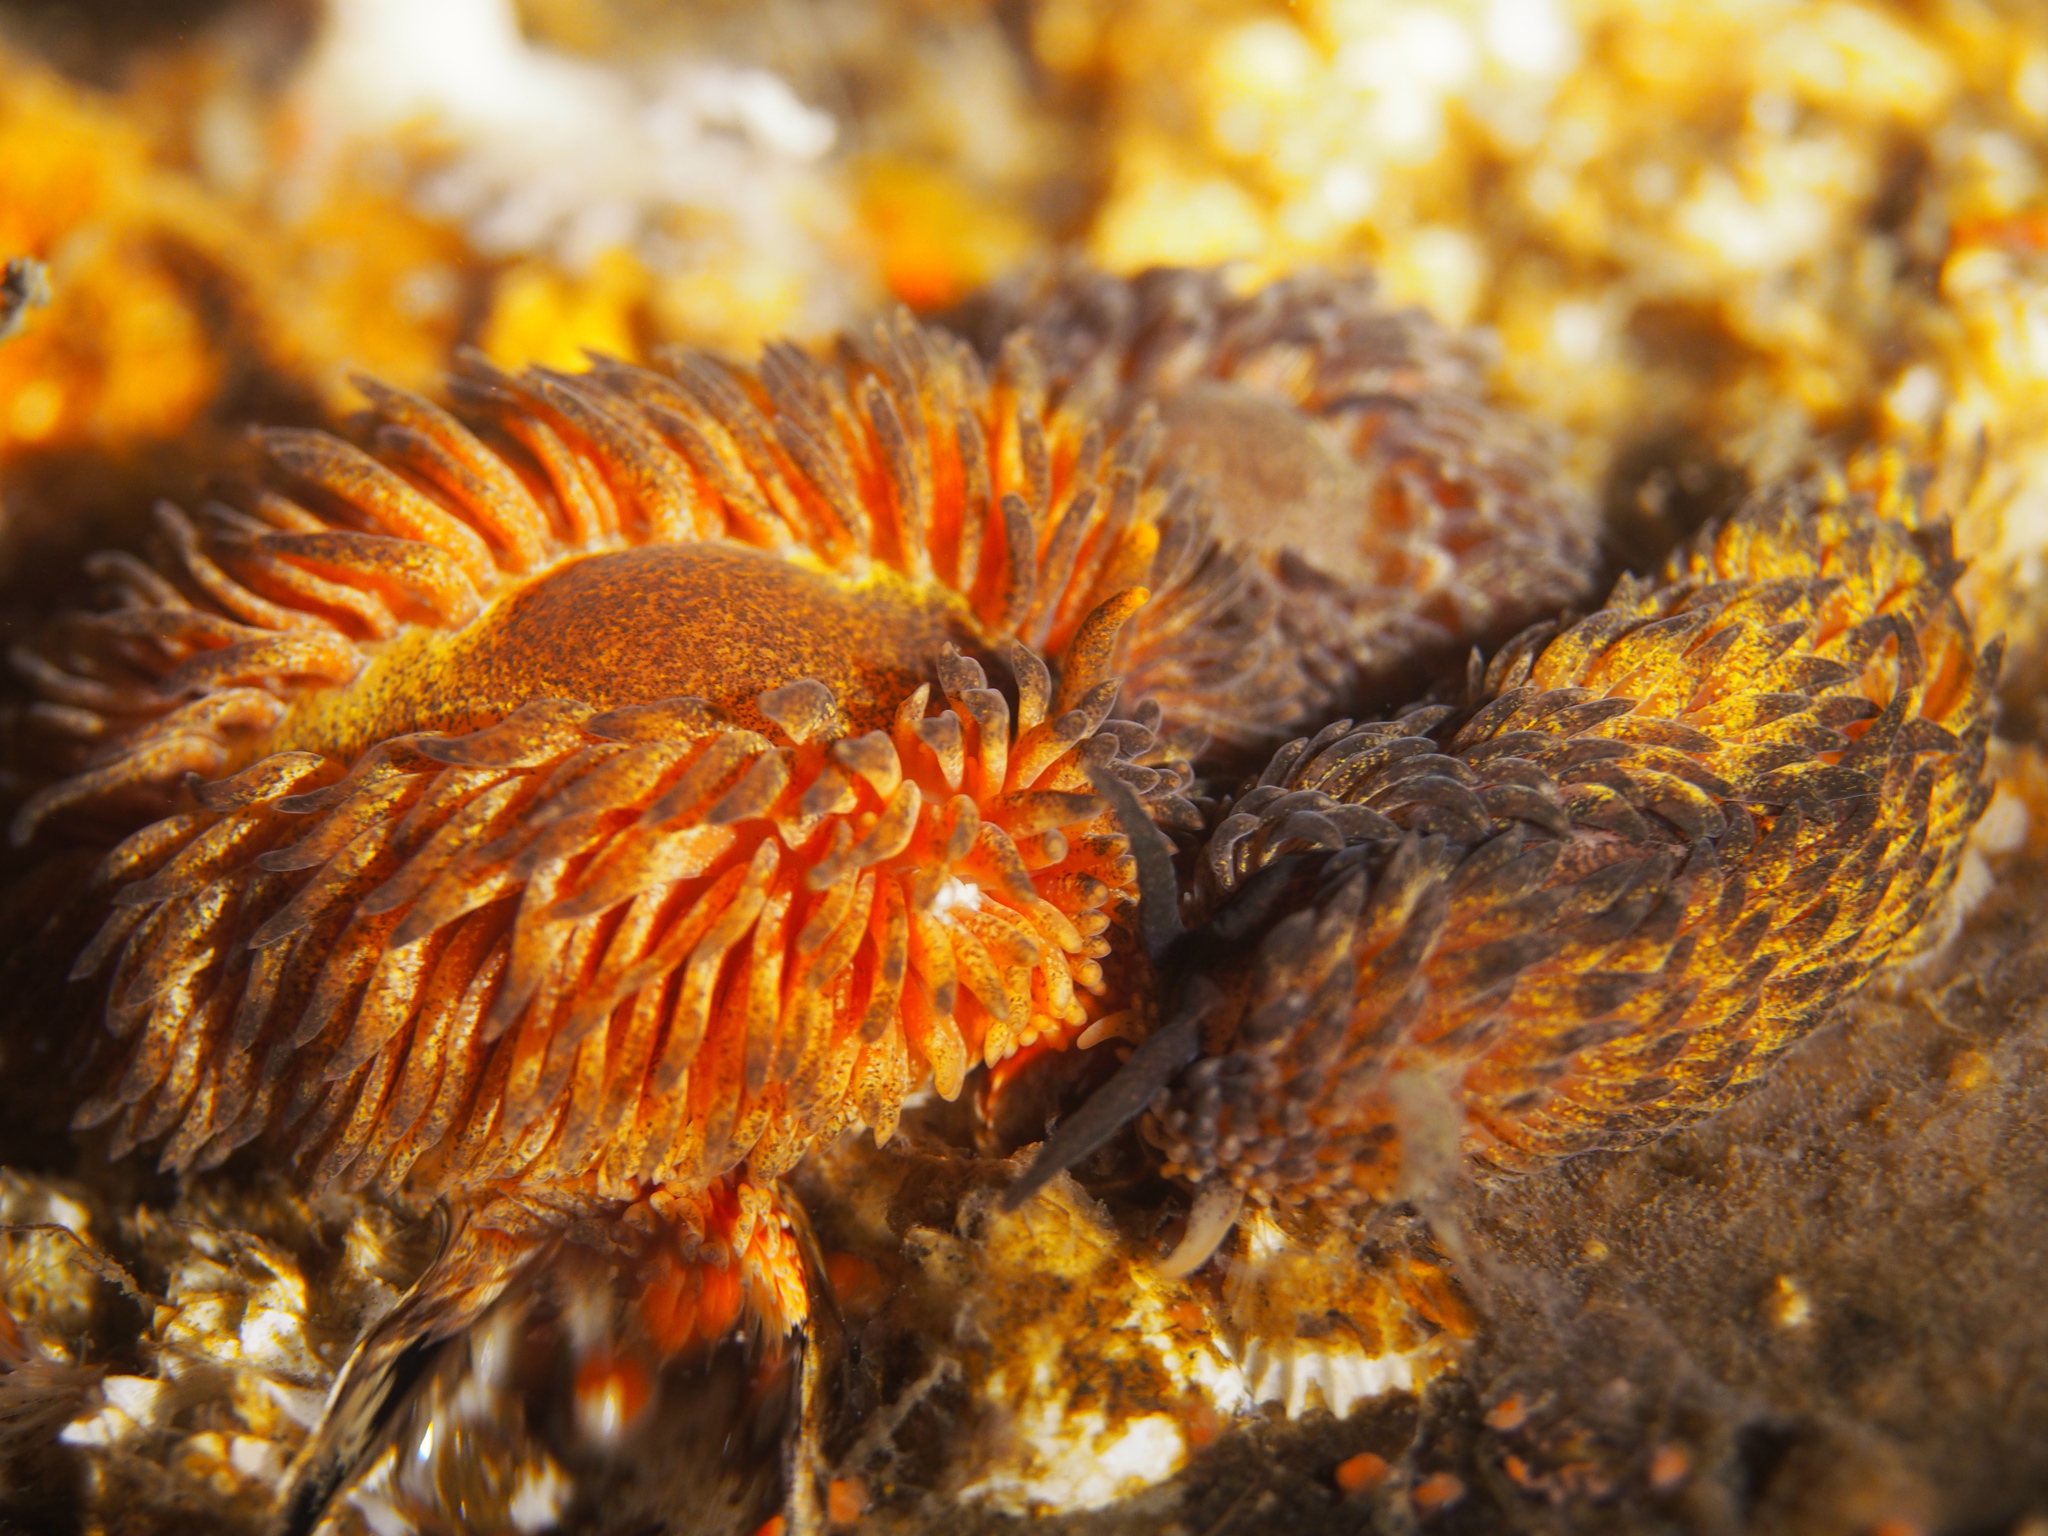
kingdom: Animalia
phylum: Mollusca
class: Gastropoda
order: Nudibranchia
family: Aeolidiidae
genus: Aeolidia
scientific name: Aeolidia papillosa
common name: Common grey sea slug
